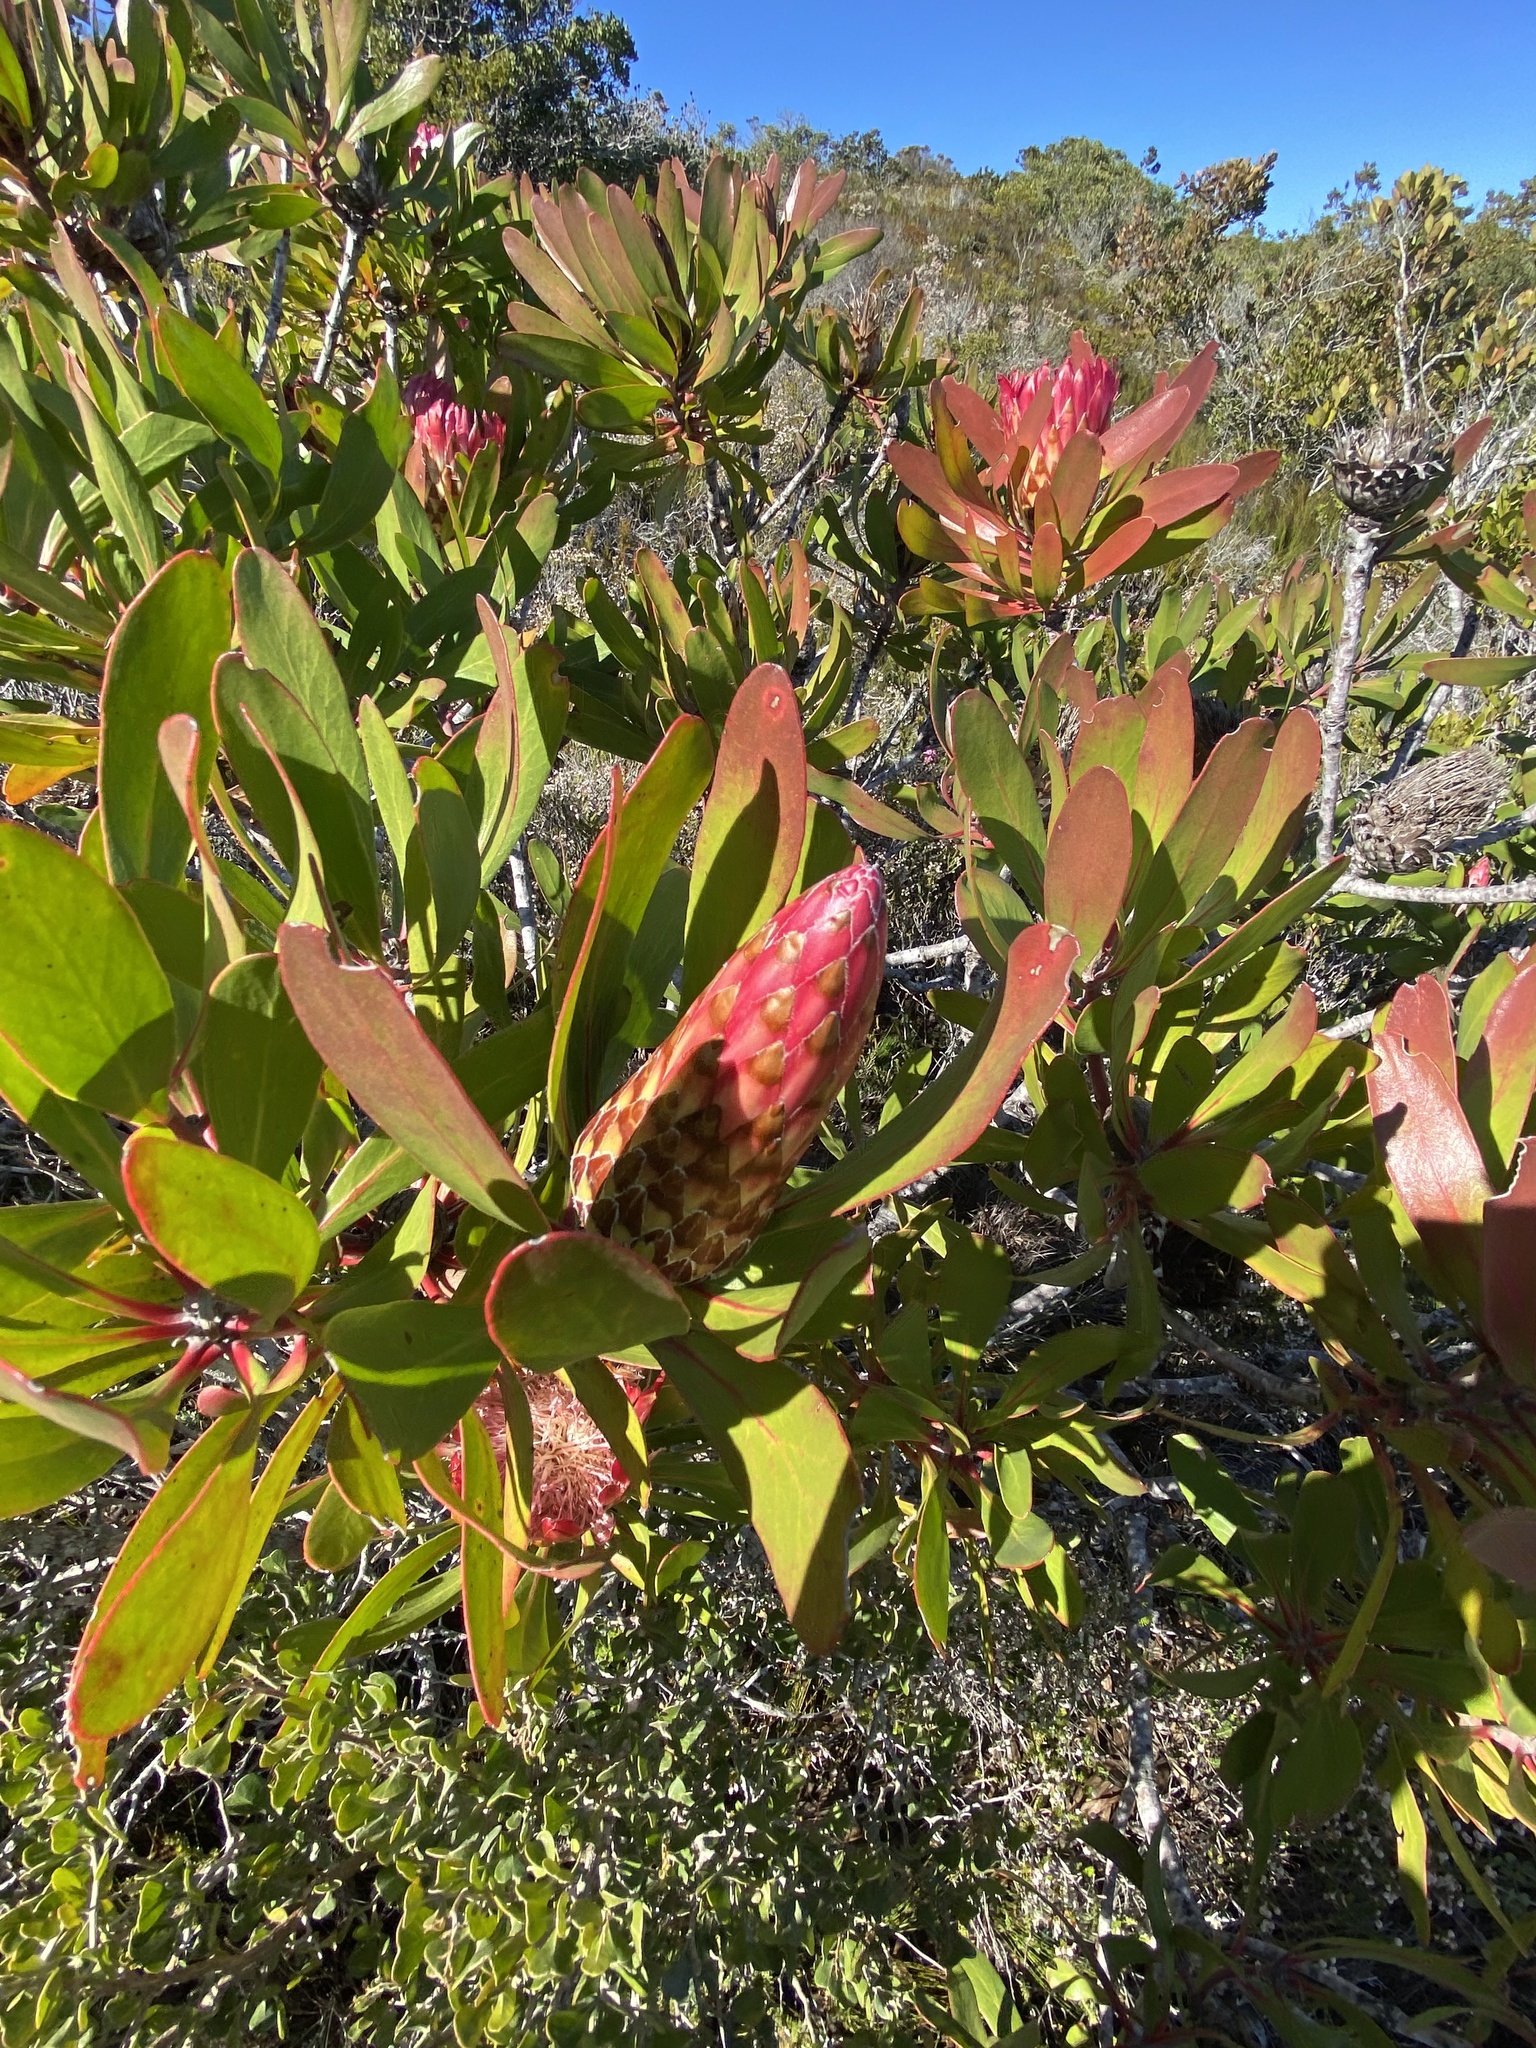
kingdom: Plantae
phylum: Tracheophyta
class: Magnoliopsida
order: Proteales
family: Proteaceae
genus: Protea
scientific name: Protea obtusifolia
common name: Bredasdorp sugarbush
